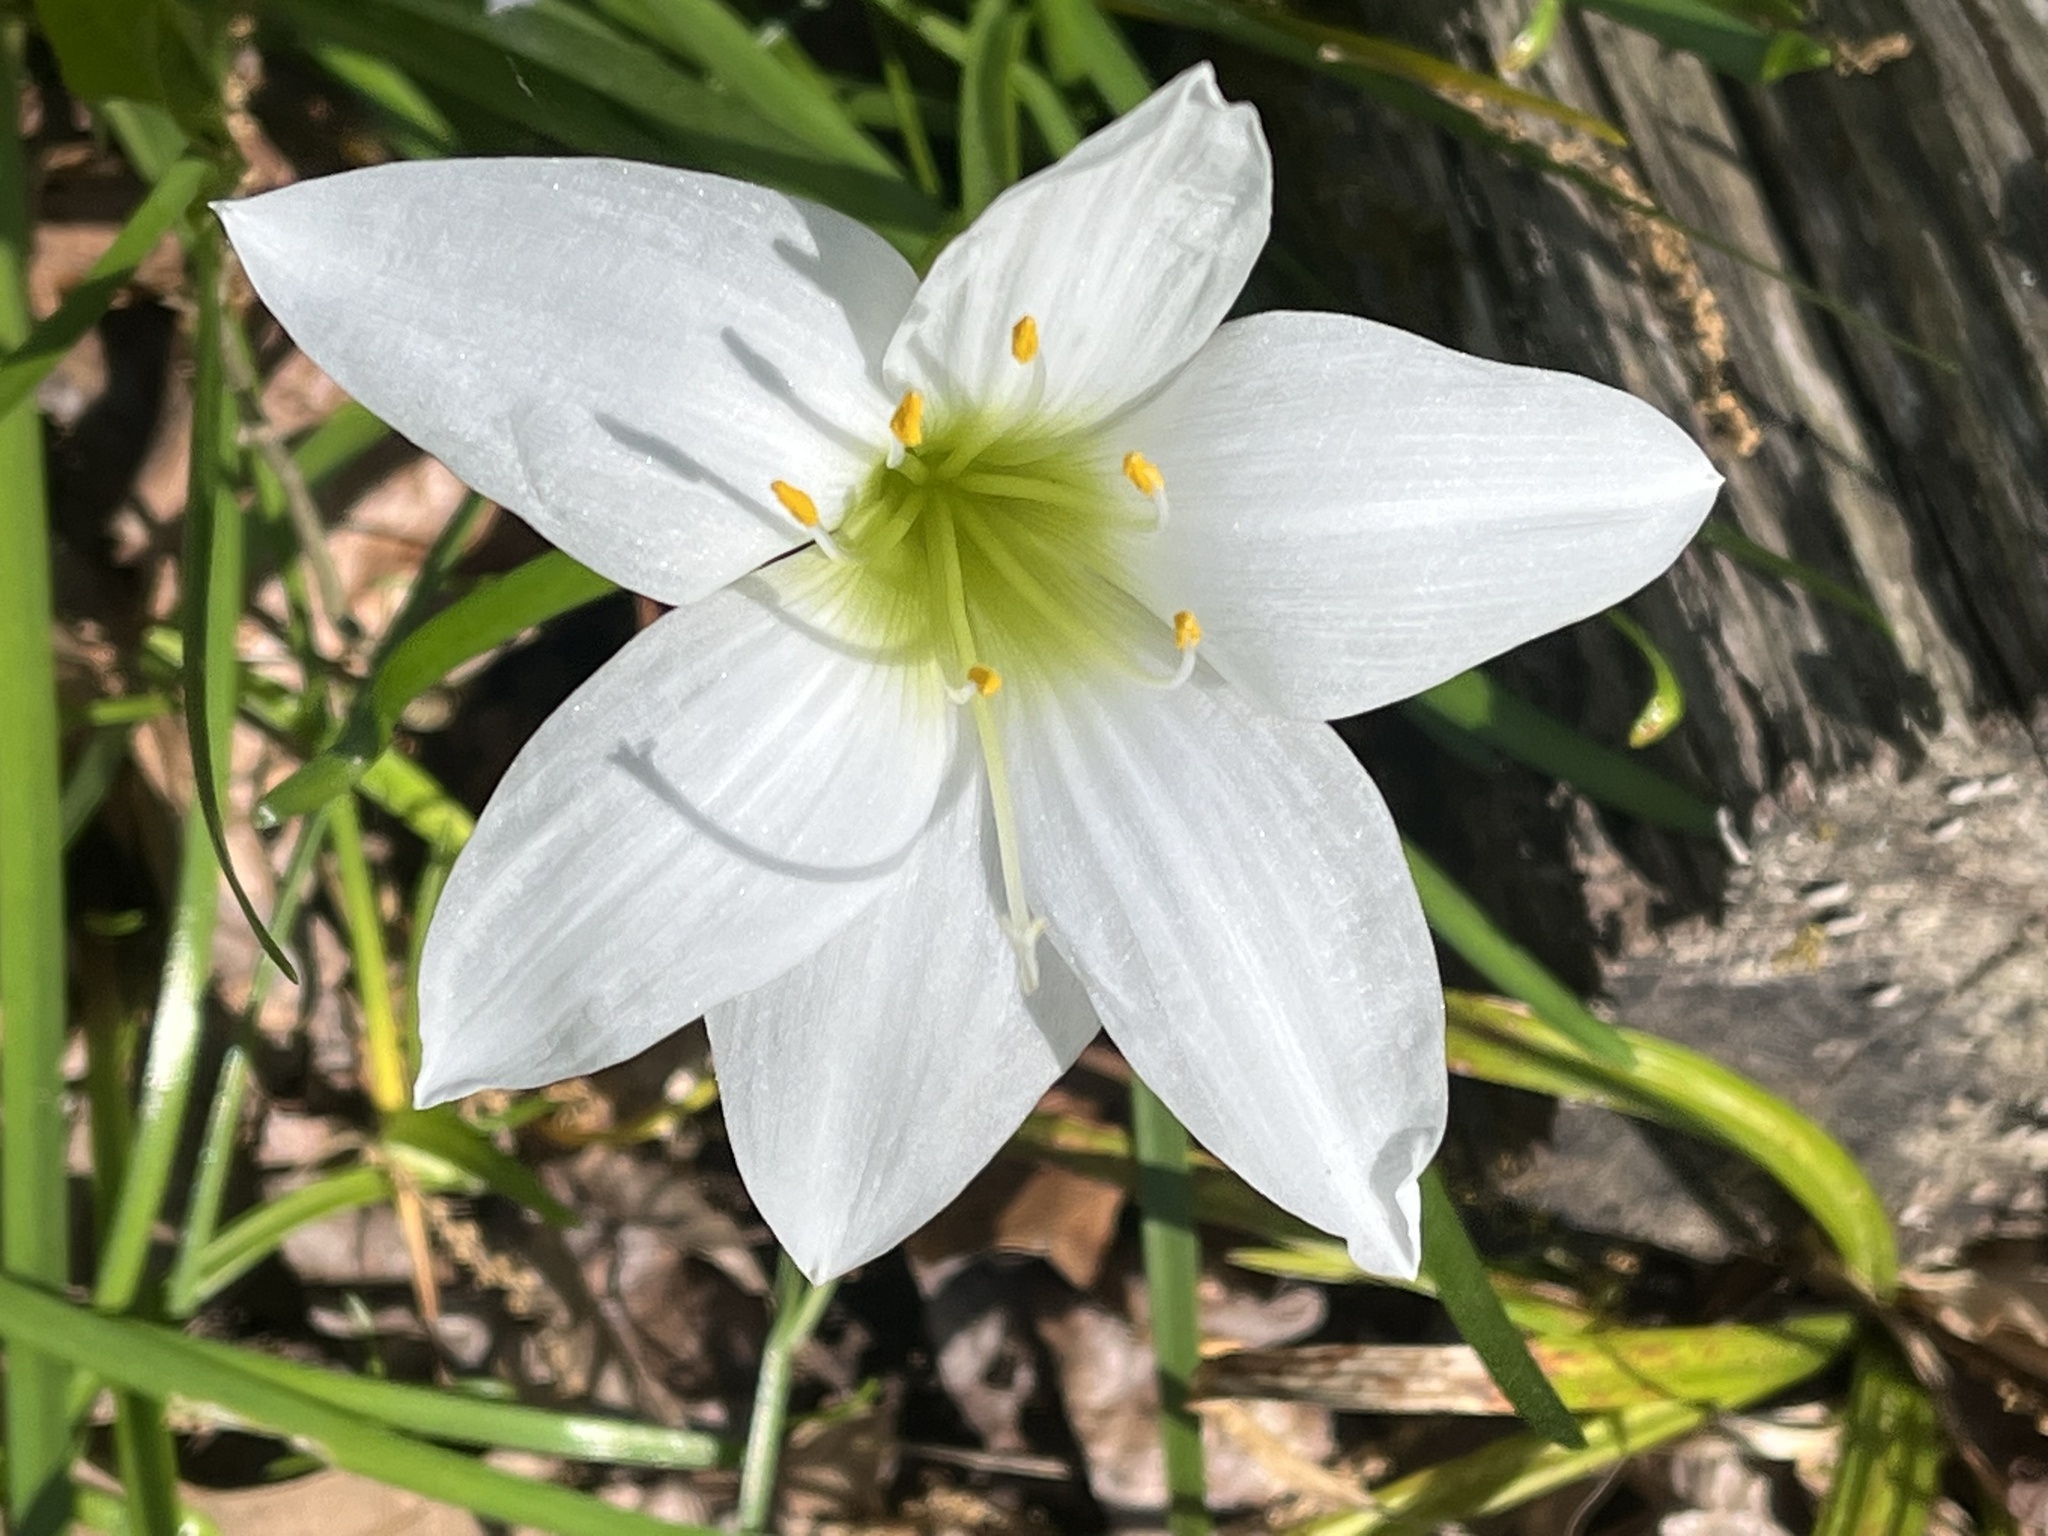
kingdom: Plantae
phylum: Tracheophyta
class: Liliopsida
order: Asparagales
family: Amaryllidaceae
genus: Zephyranthes
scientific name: Zephyranthes atamasco
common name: Atamasco lily
